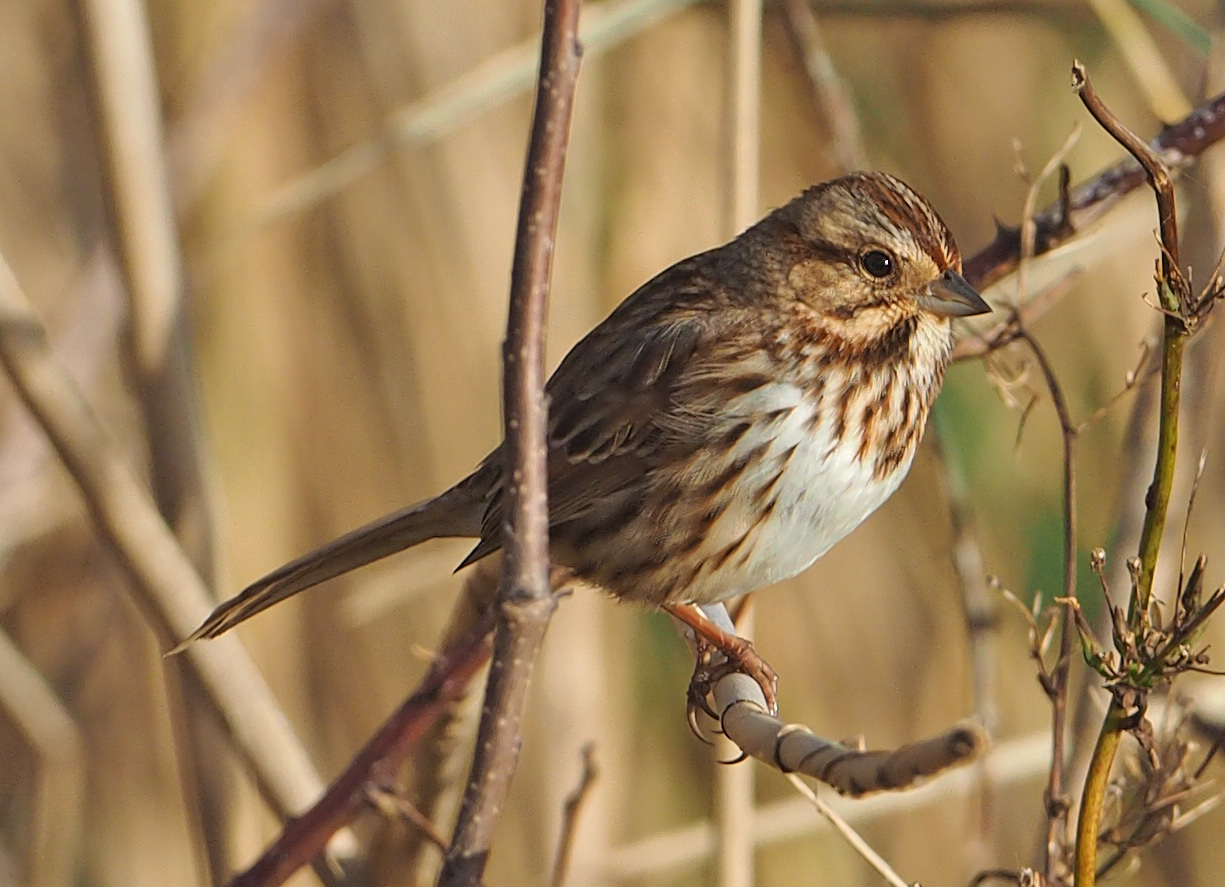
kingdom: Animalia
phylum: Chordata
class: Aves
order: Passeriformes
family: Passerellidae
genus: Melospiza
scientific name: Melospiza melodia
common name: Song sparrow
